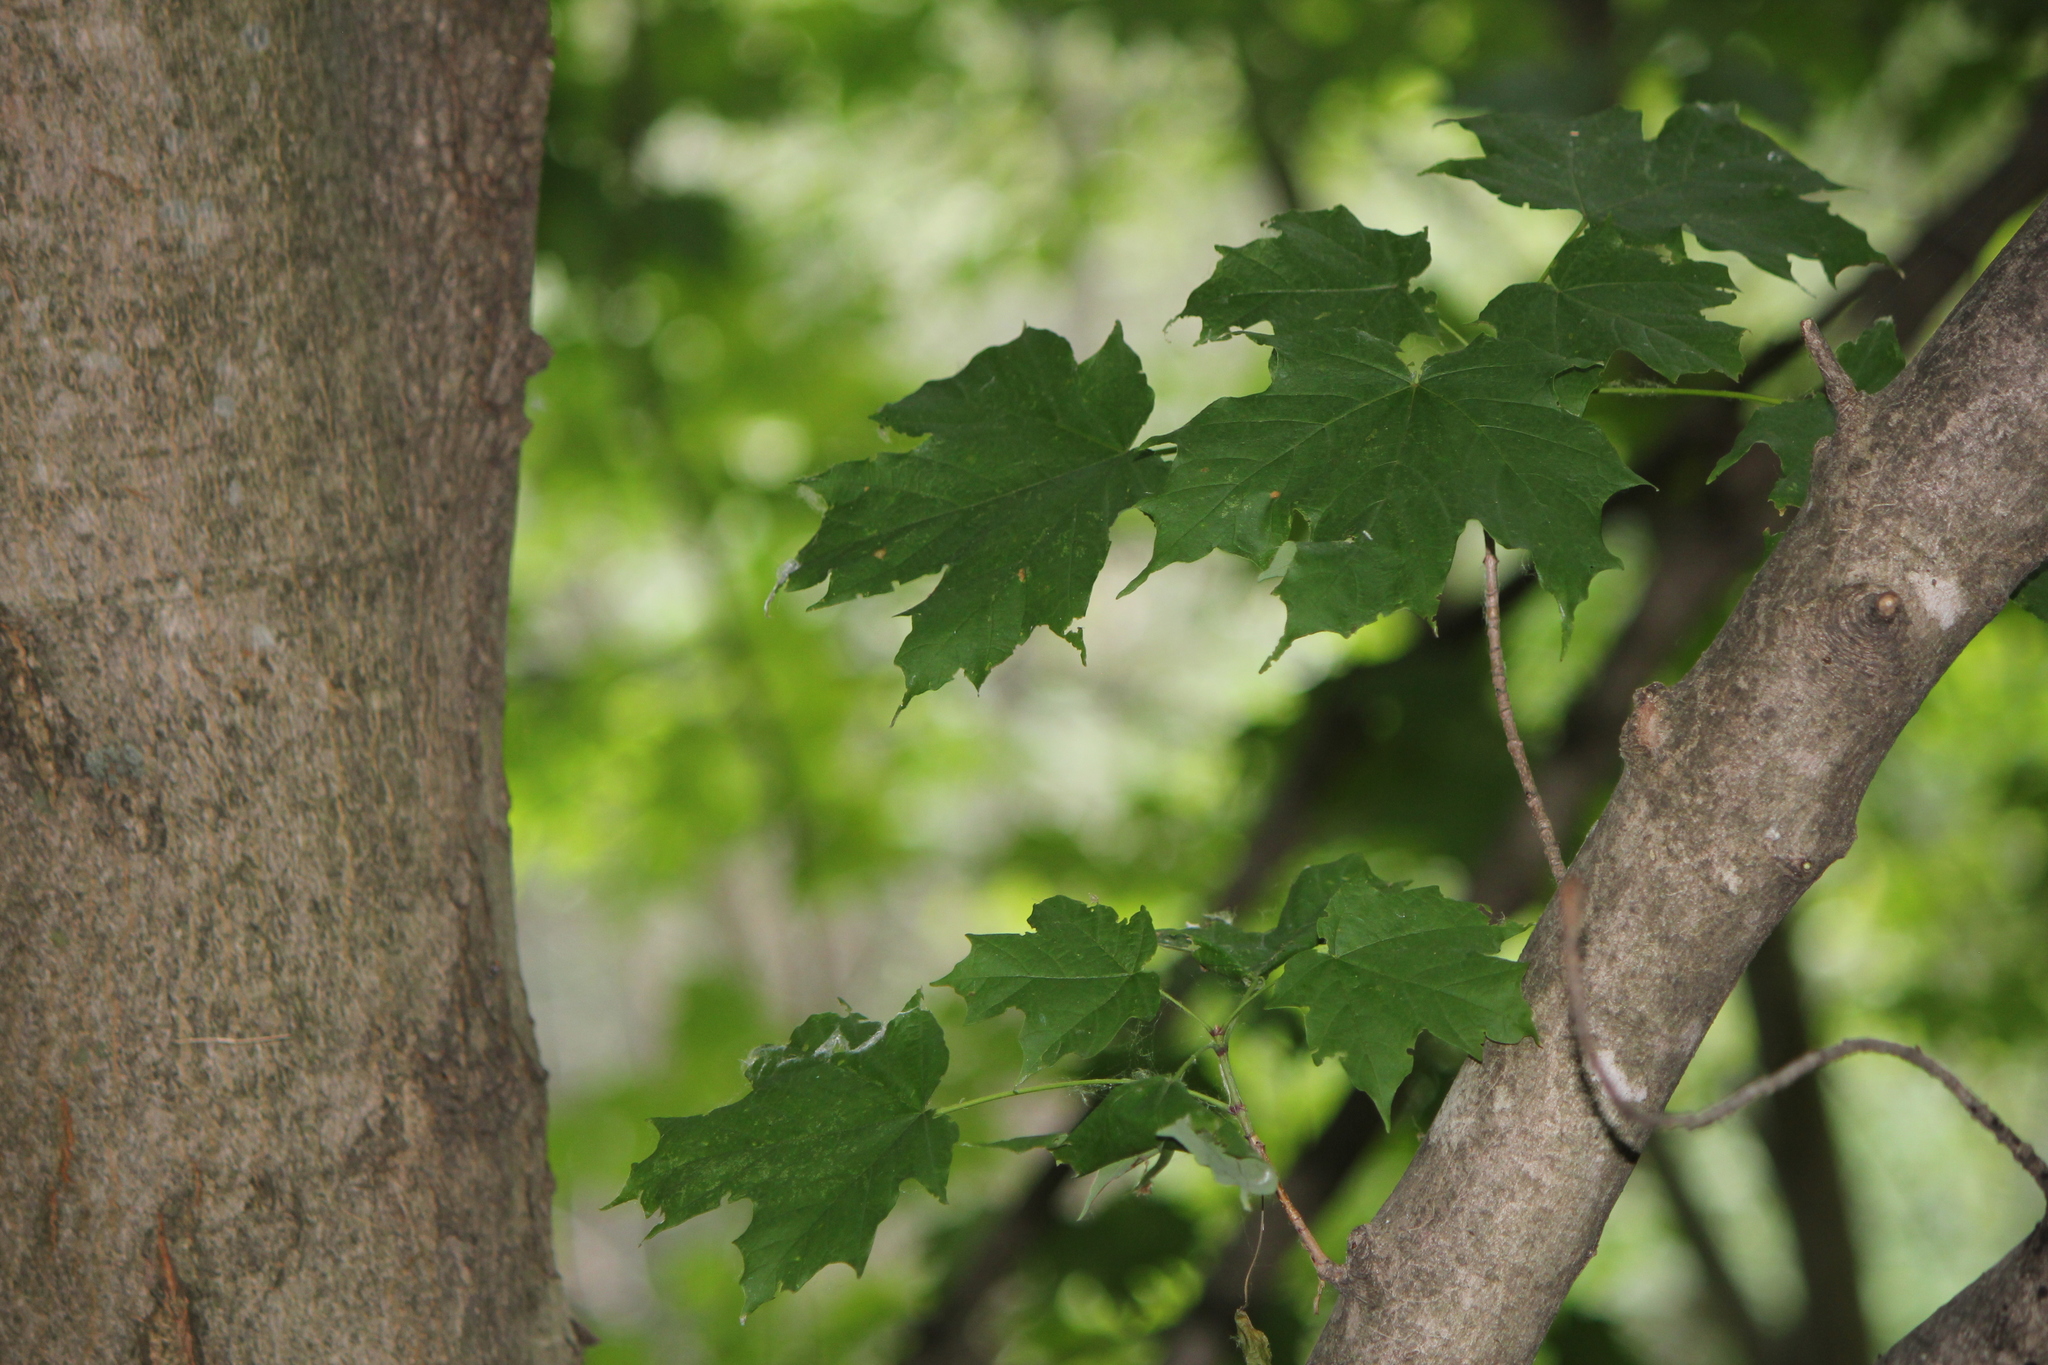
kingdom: Plantae
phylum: Tracheophyta
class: Magnoliopsida
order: Sapindales
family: Sapindaceae
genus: Acer
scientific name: Acer saccharum
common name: Sugar maple
